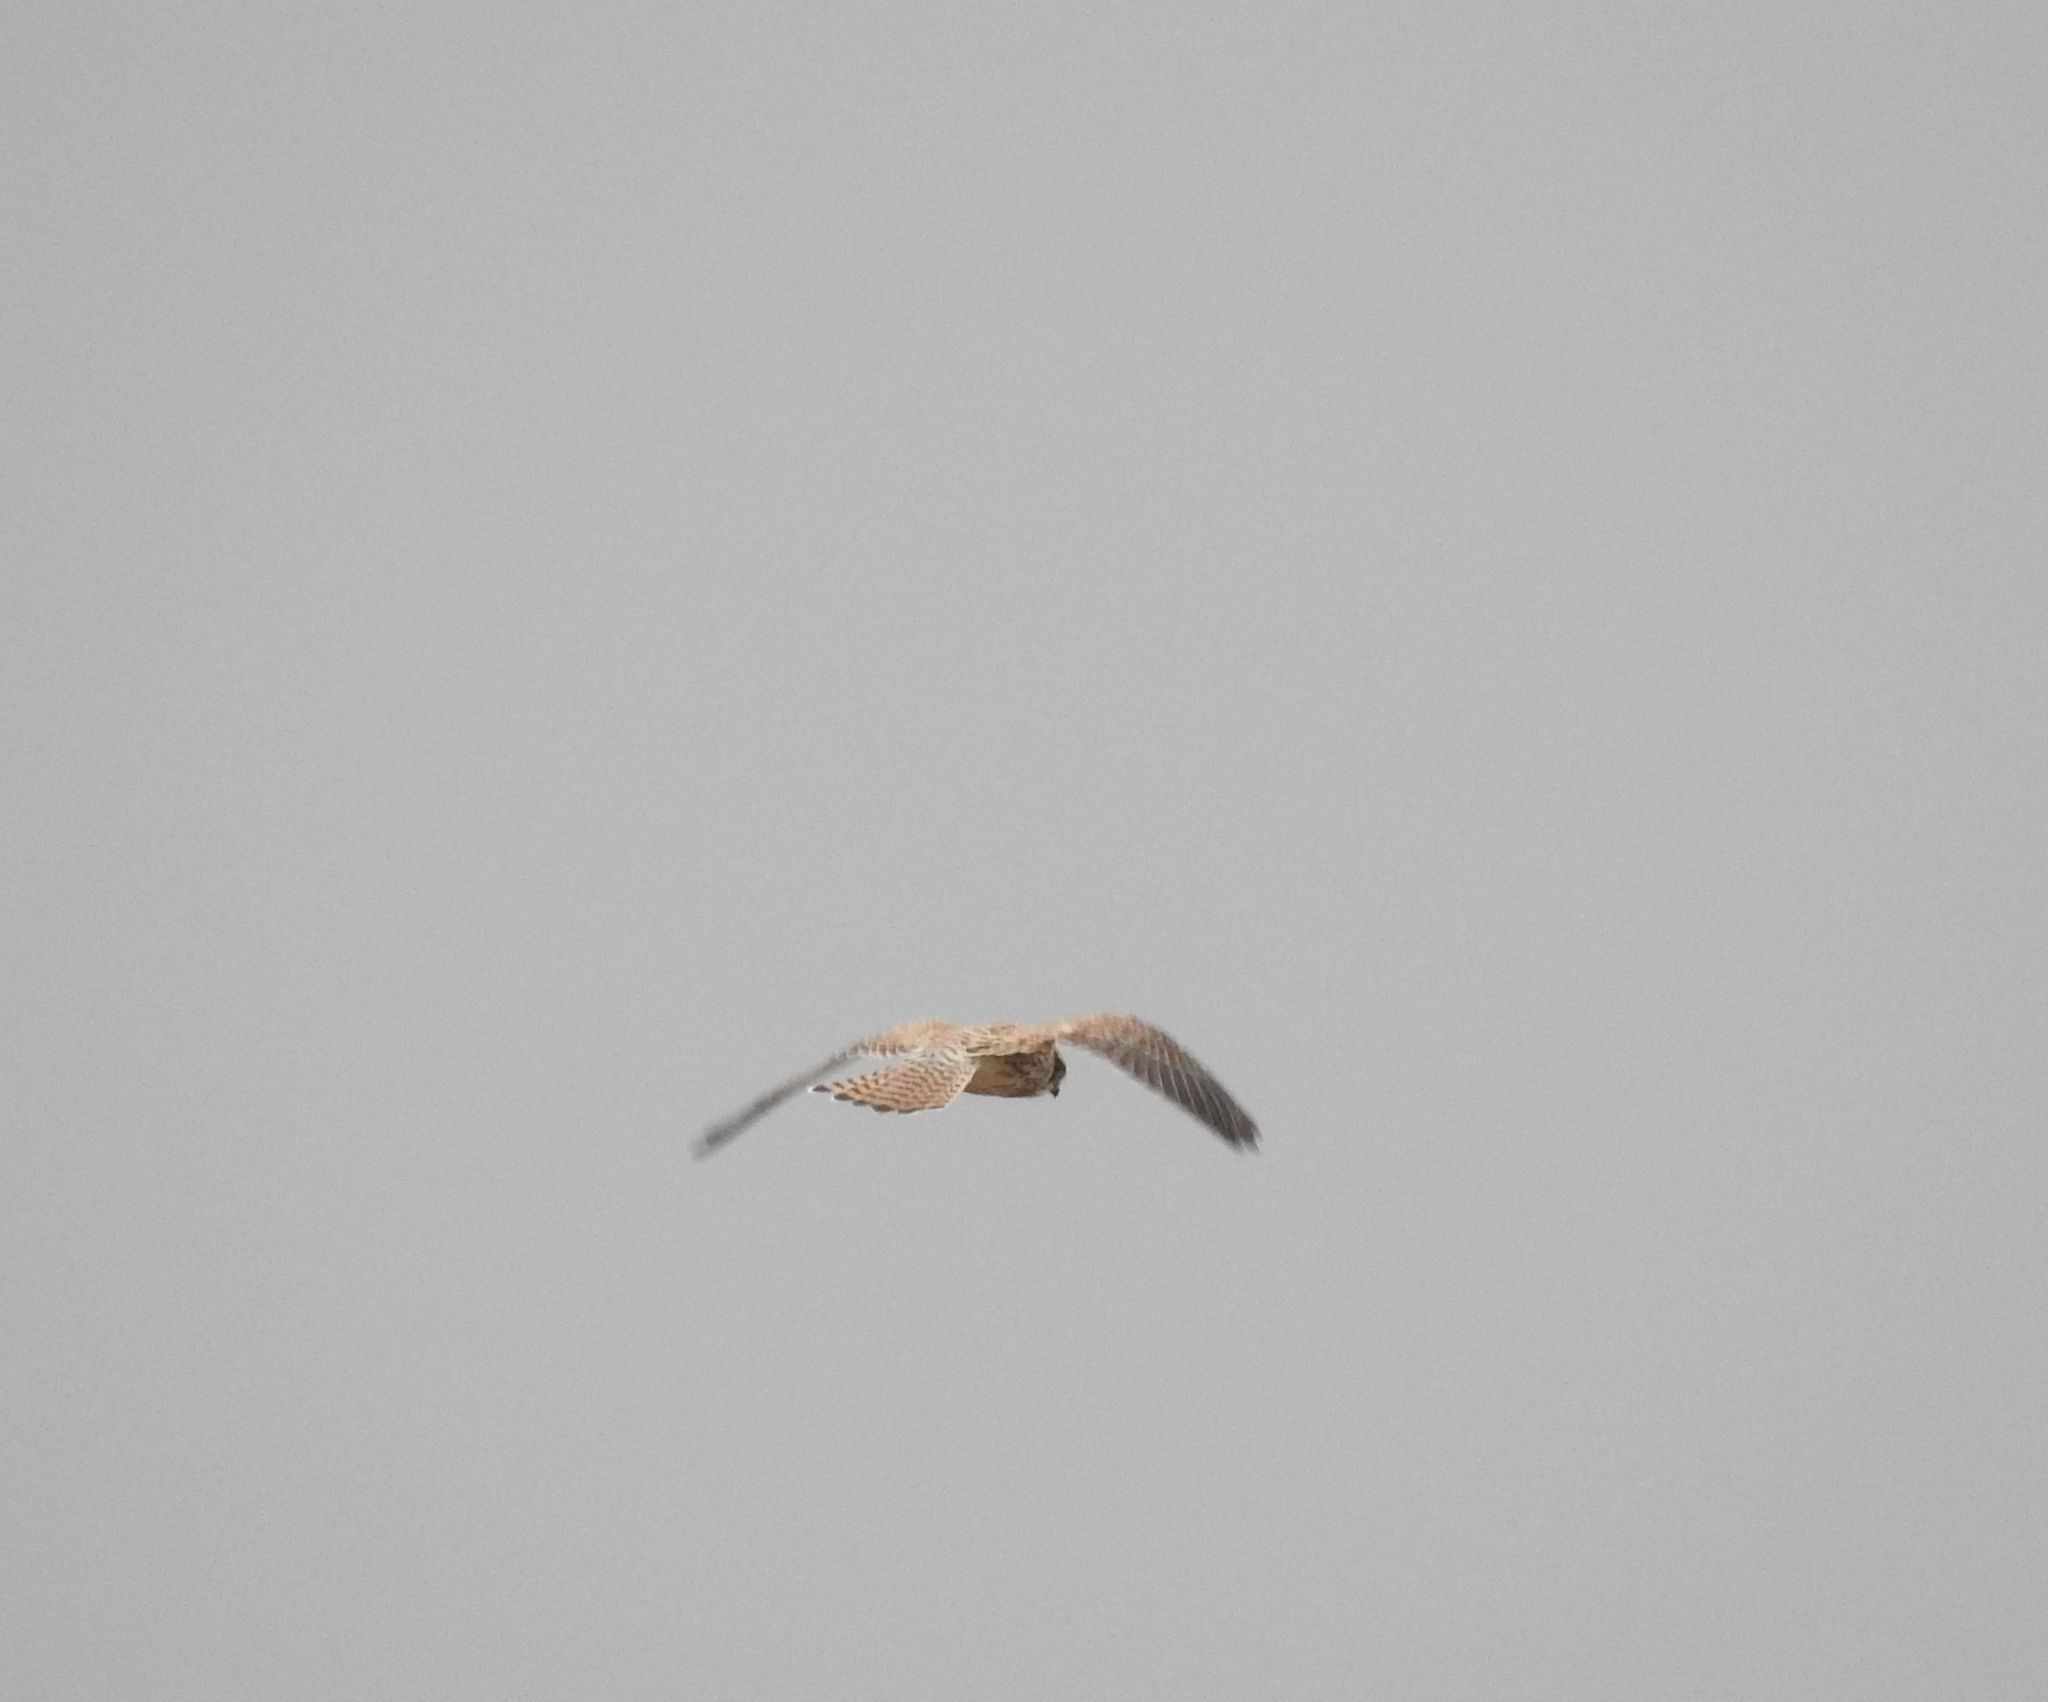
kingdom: Animalia
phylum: Chordata
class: Aves
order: Falconiformes
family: Falconidae
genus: Falco
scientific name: Falco tinnunculus
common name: Common kestrel
